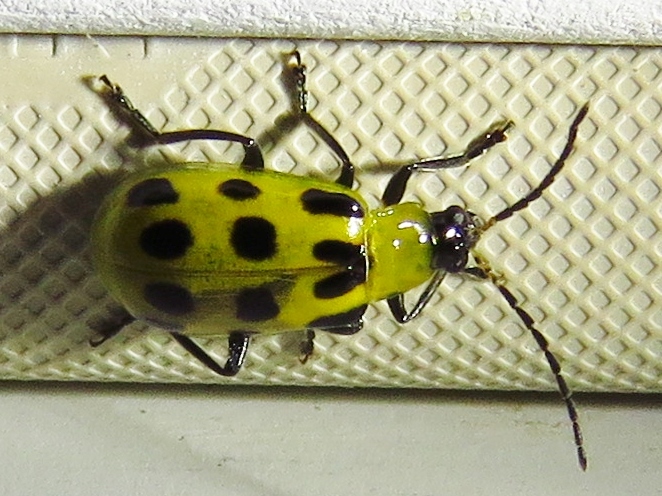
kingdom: Animalia
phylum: Arthropoda
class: Insecta
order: Coleoptera
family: Chrysomelidae
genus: Diabrotica
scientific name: Diabrotica undecimpunctata
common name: Spotted cucumber beetle
